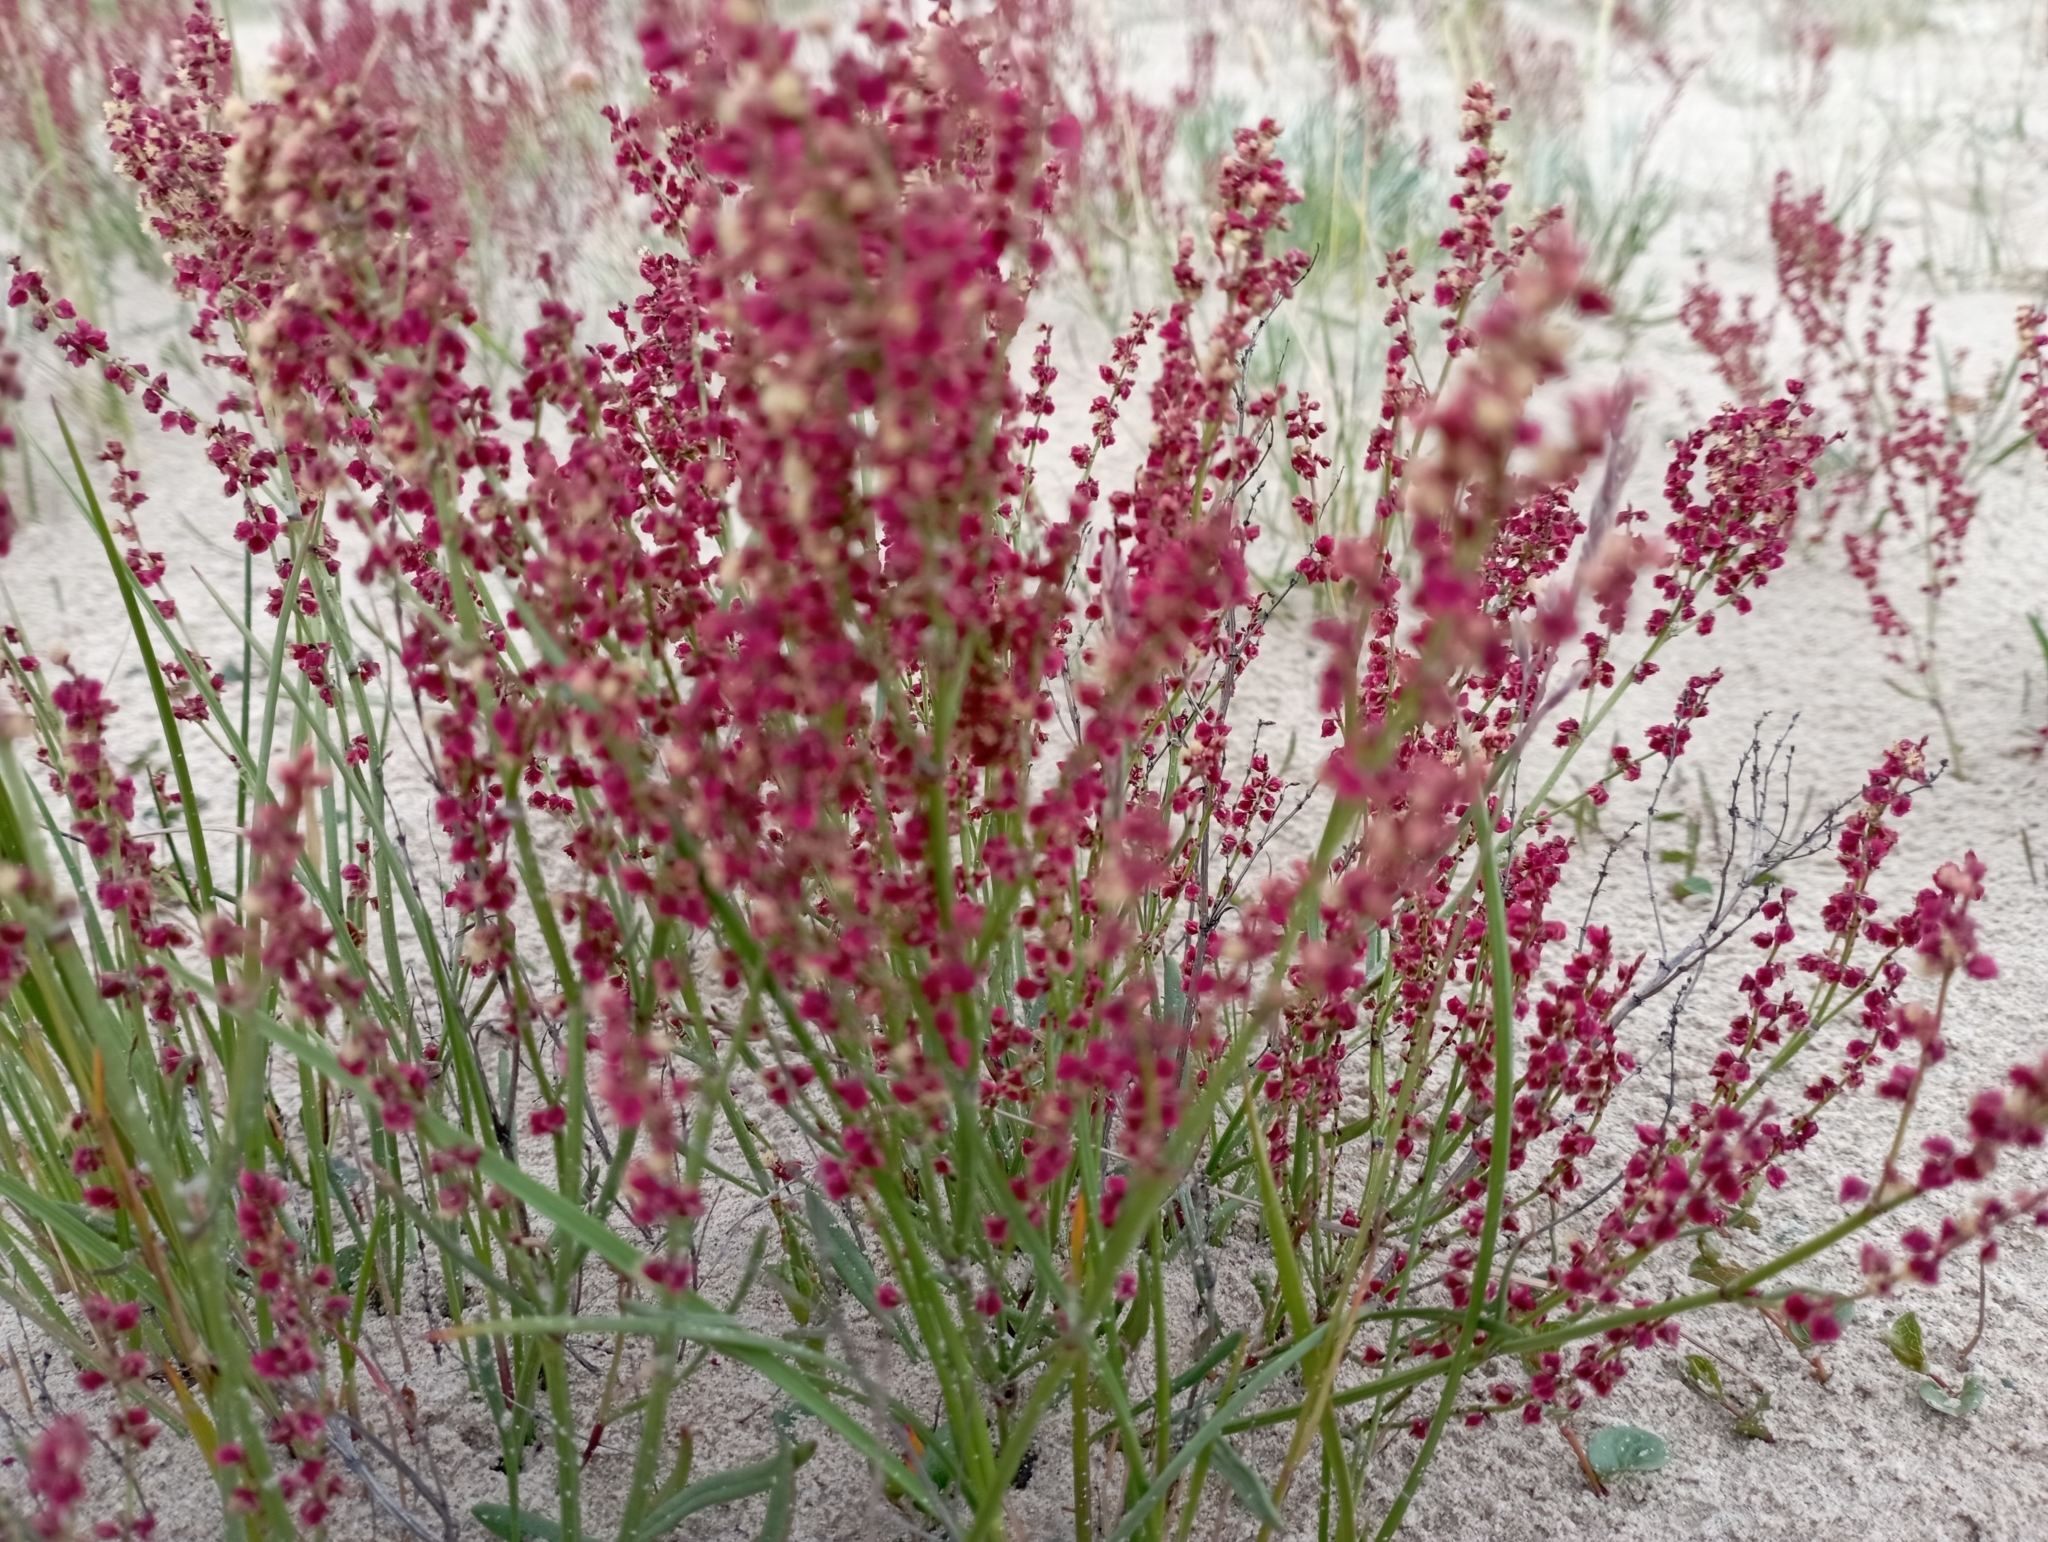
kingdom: Plantae
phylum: Tracheophyta
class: Magnoliopsida
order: Caryophyllales
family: Polygonaceae
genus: Rumex
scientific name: Rumex graminifolius
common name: Grass-leaved sorrel
